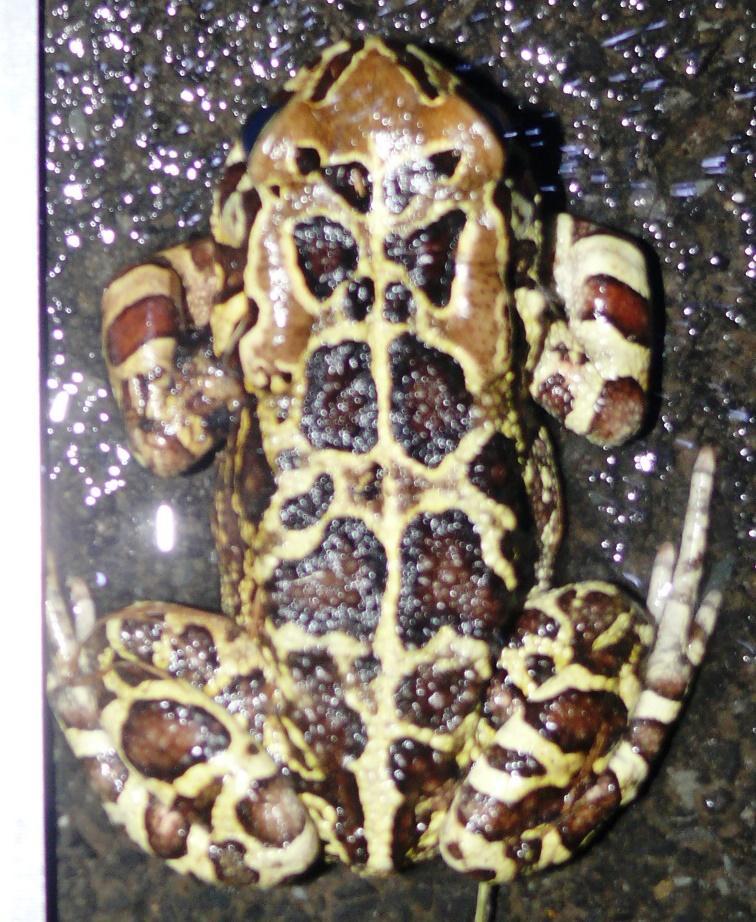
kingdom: Animalia
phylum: Chordata
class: Amphibia
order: Anura
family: Bufonidae
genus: Sclerophrys
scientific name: Sclerophrys pantherina
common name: Panther toad
